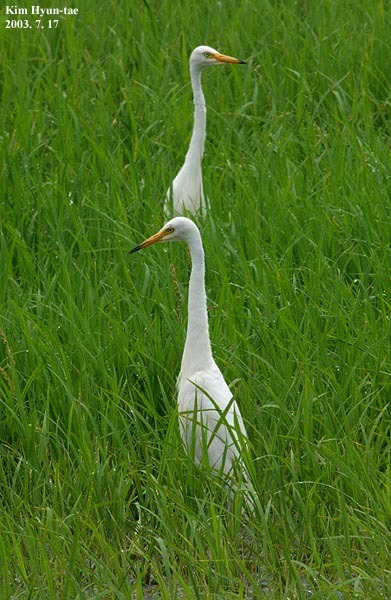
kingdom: Animalia
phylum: Chordata
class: Aves
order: Pelecaniformes
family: Ardeidae
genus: Egretta
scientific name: Egretta intermedia
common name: Intermediate egret
